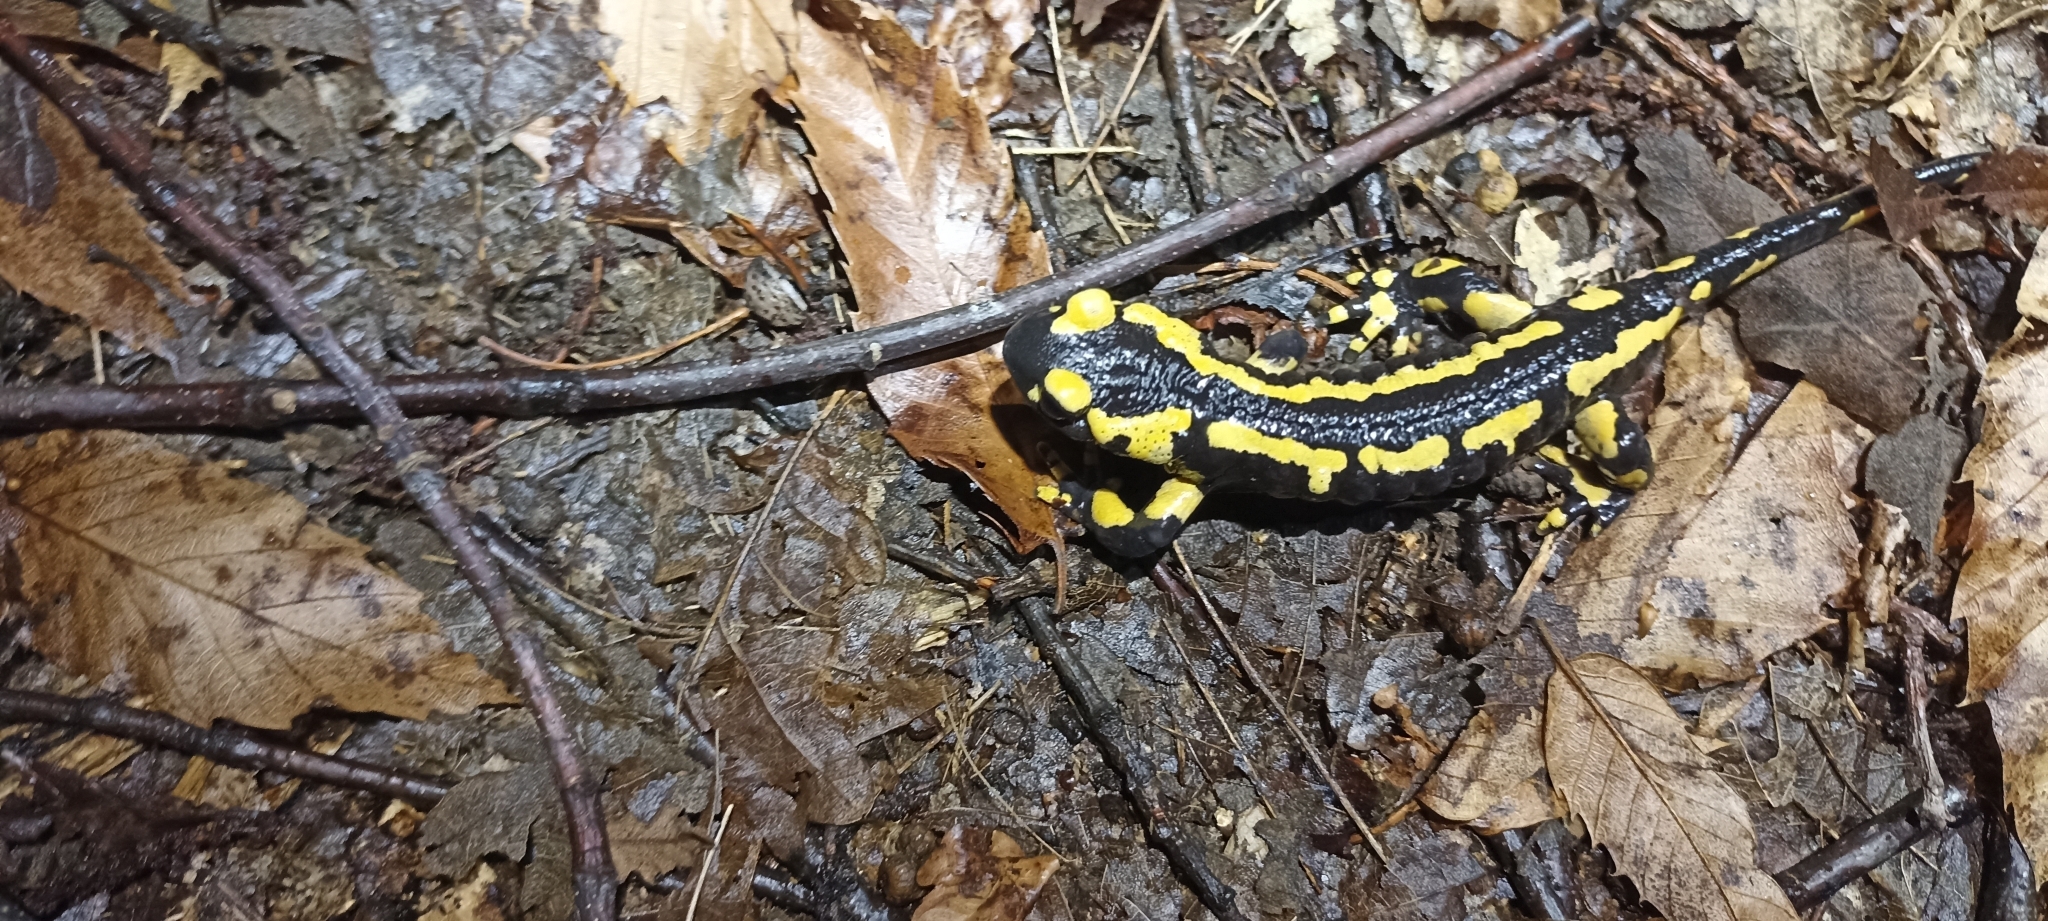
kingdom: Animalia
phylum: Chordata
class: Amphibia
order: Caudata
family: Salamandridae
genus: Salamandra
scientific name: Salamandra salamandra
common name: Fire salamander
